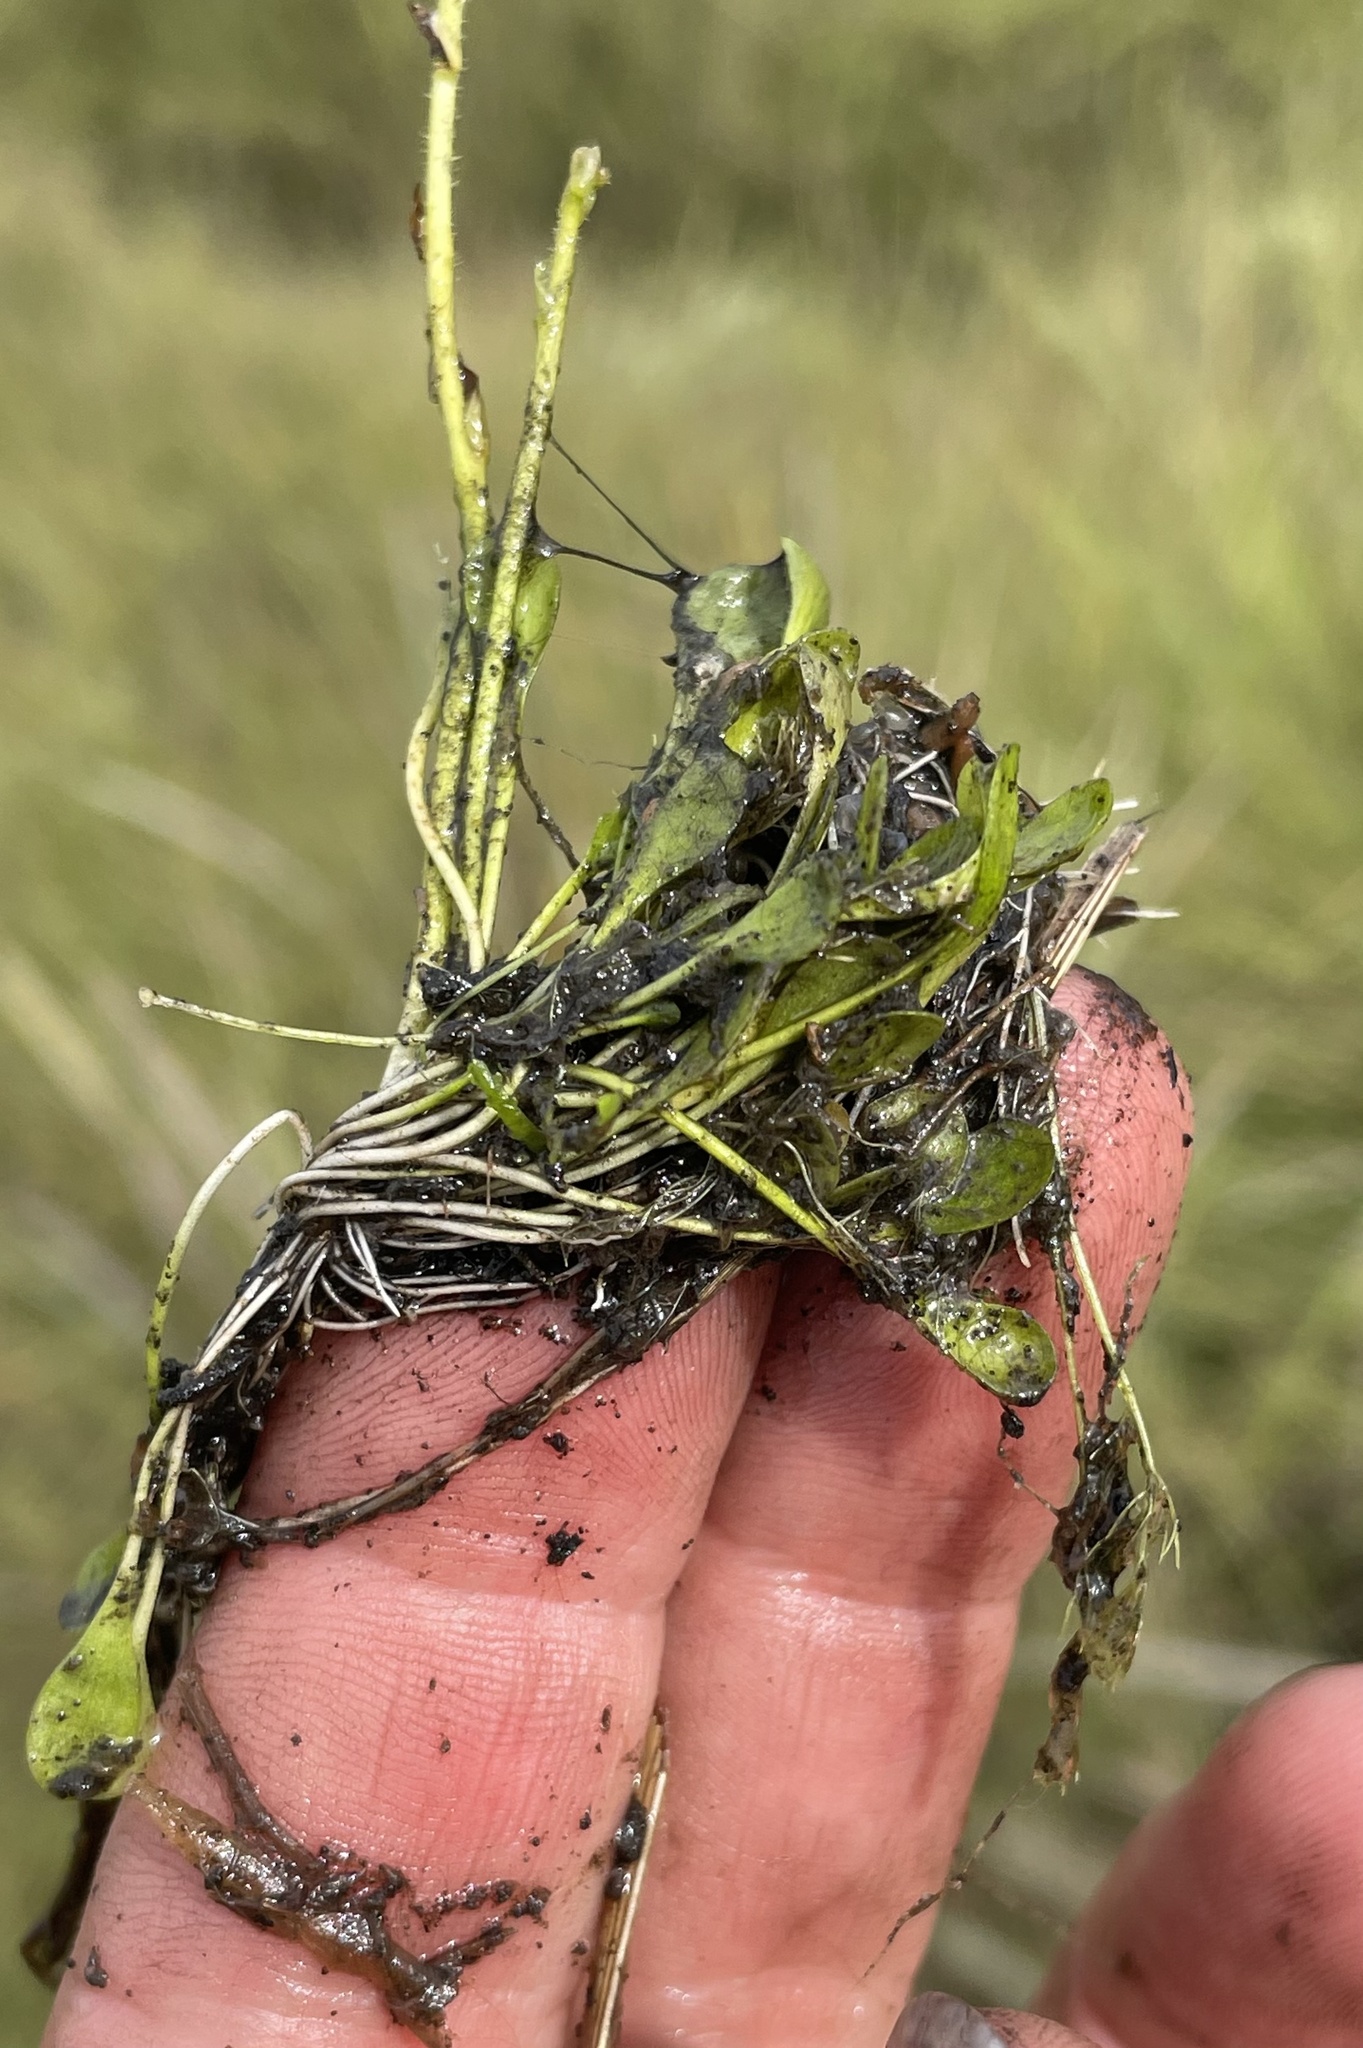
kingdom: Plantae
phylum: Tracheophyta
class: Magnoliopsida
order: Lamiales
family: Lentibulariaceae
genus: Genlisea
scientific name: Genlisea pallida
